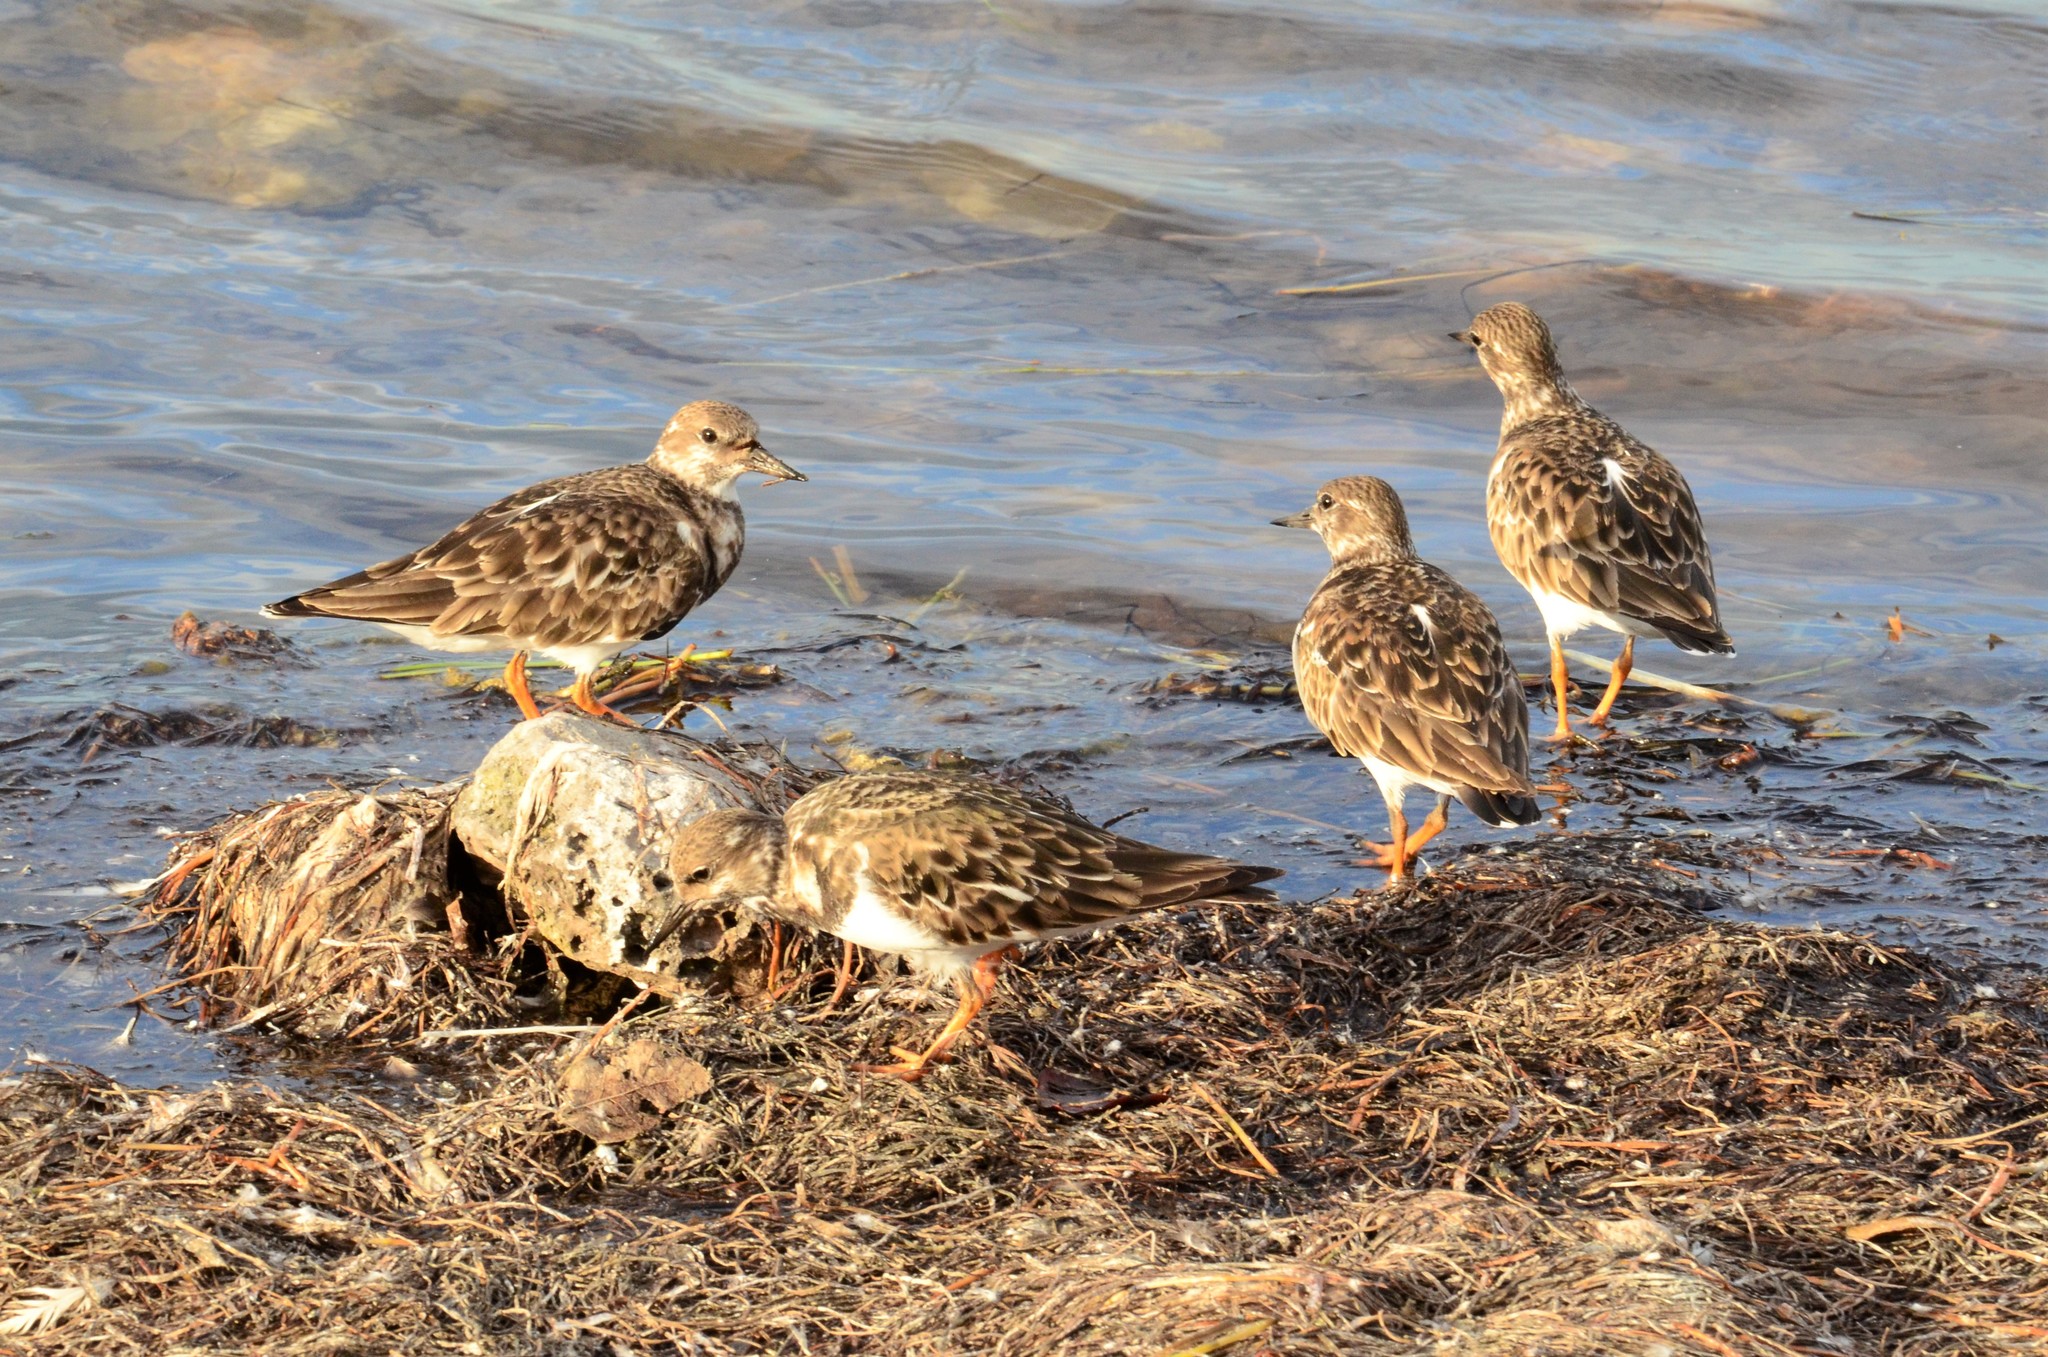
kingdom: Animalia
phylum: Chordata
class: Aves
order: Charadriiformes
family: Scolopacidae
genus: Arenaria
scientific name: Arenaria interpres
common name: Ruddy turnstone
